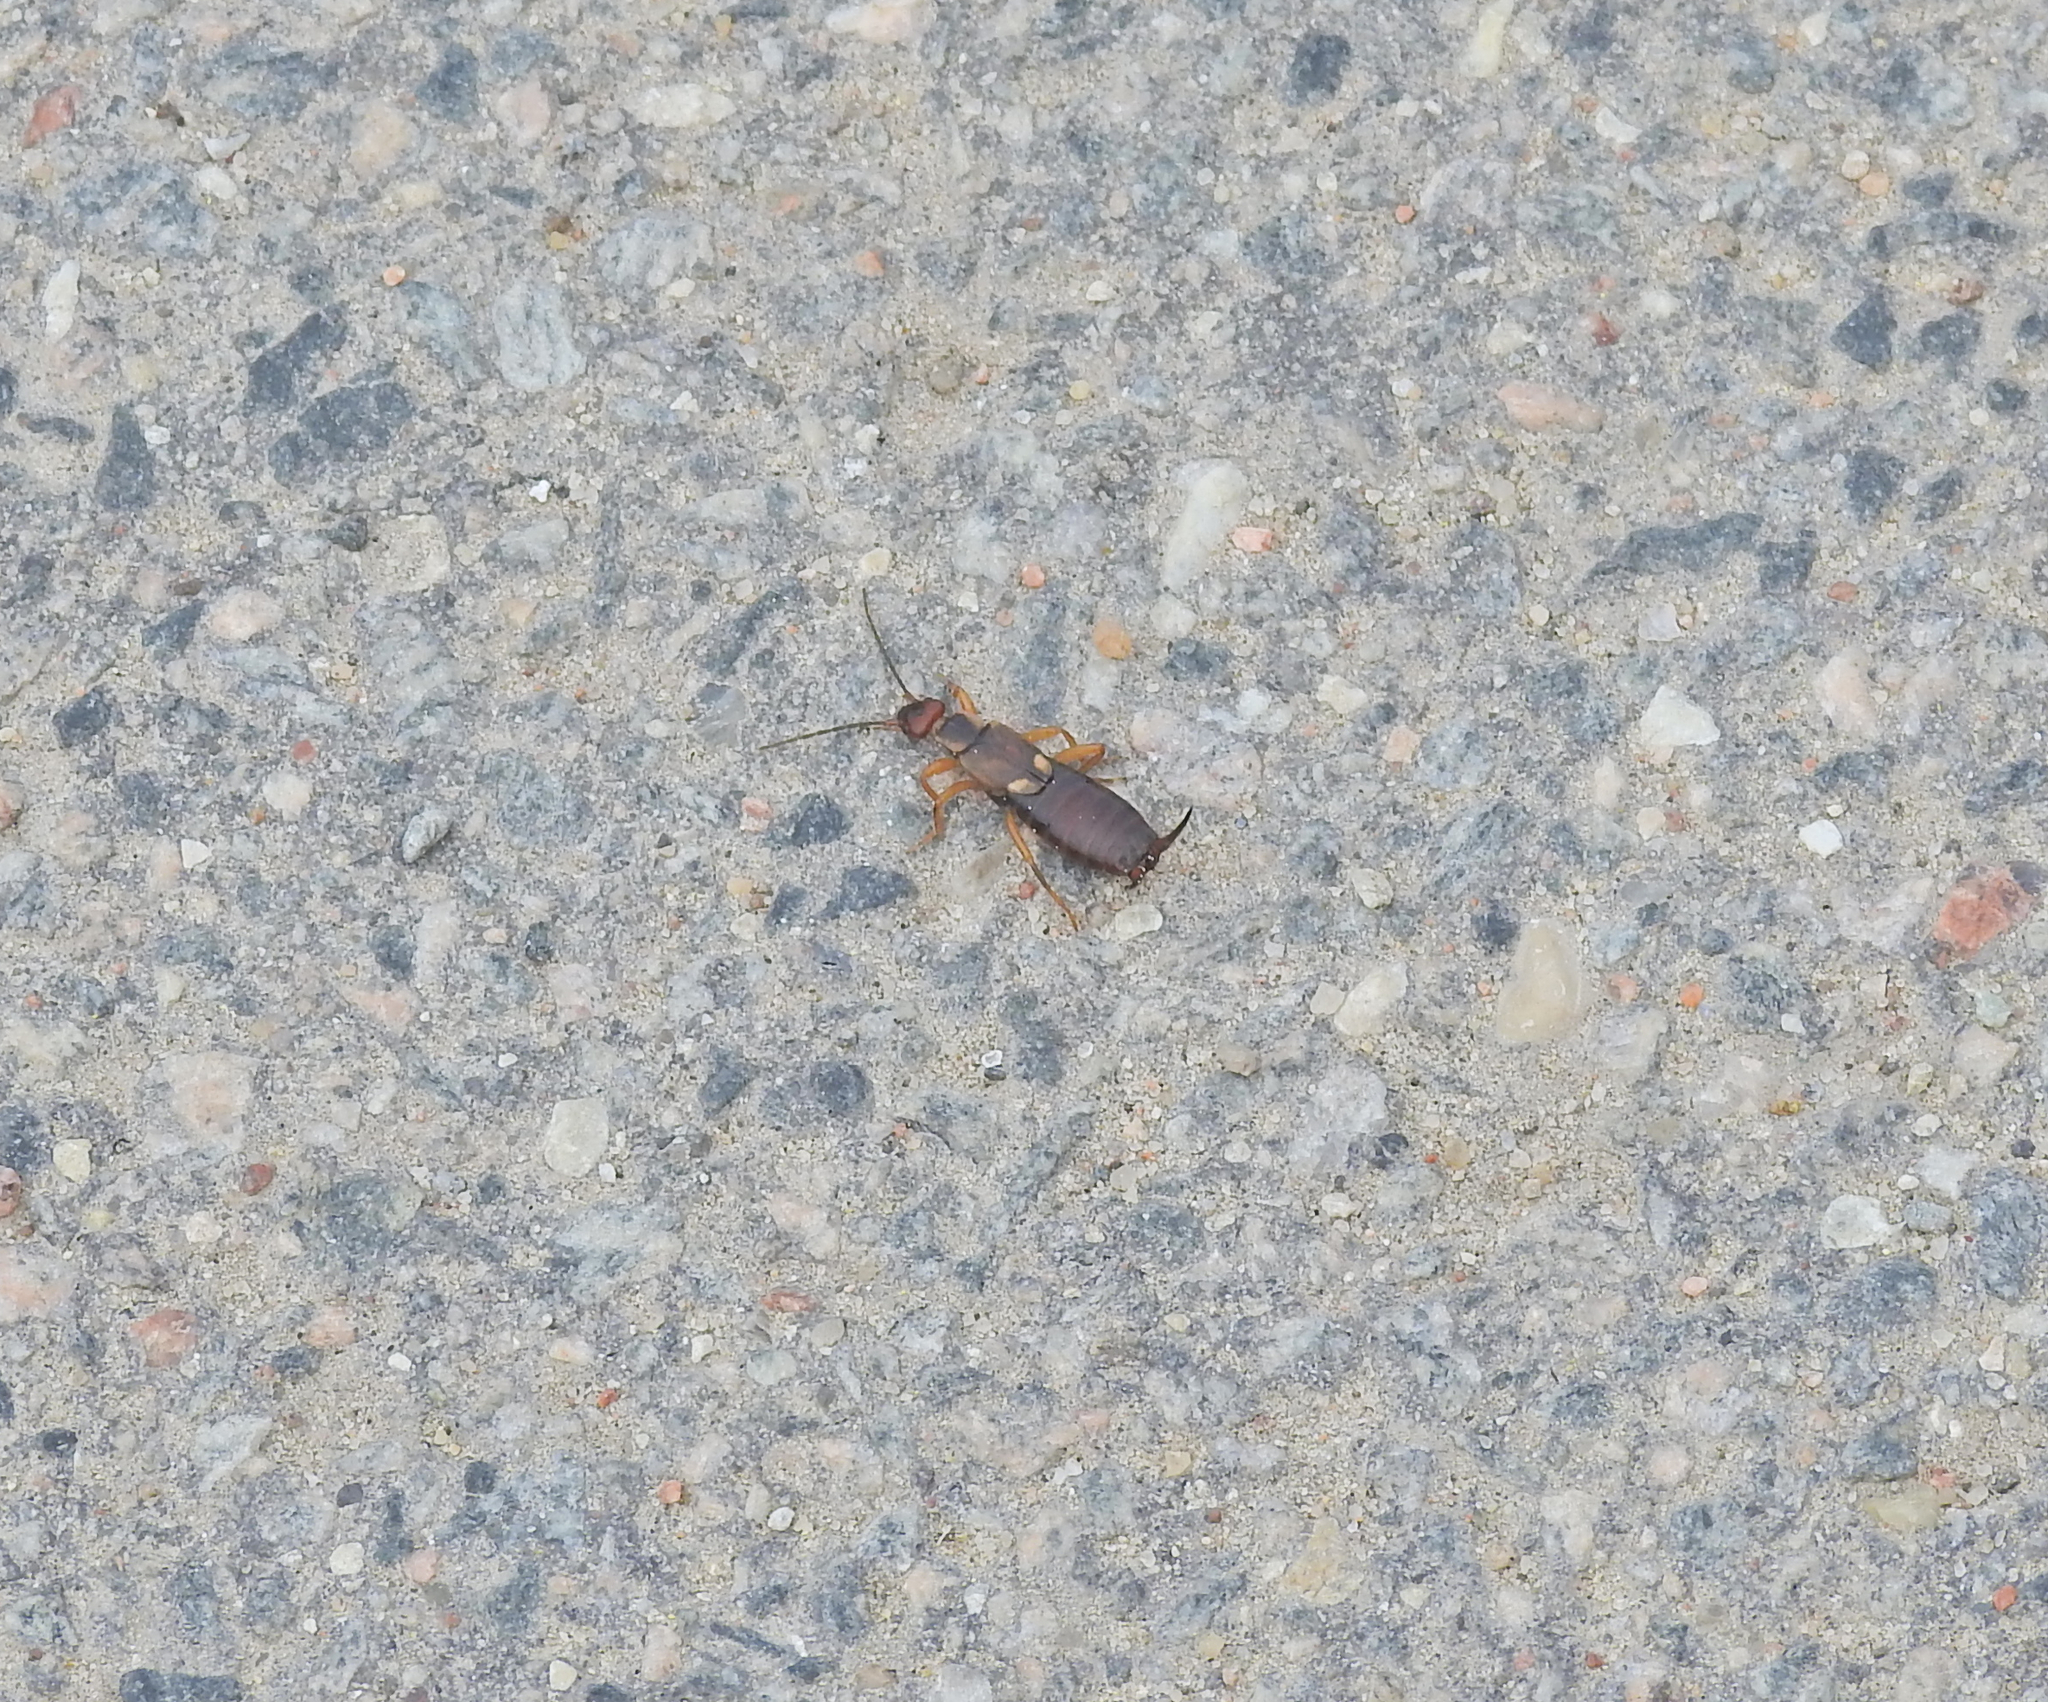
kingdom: Animalia
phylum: Arthropoda
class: Insecta
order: Dermaptera
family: Forficulidae
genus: Forficula
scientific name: Forficula
